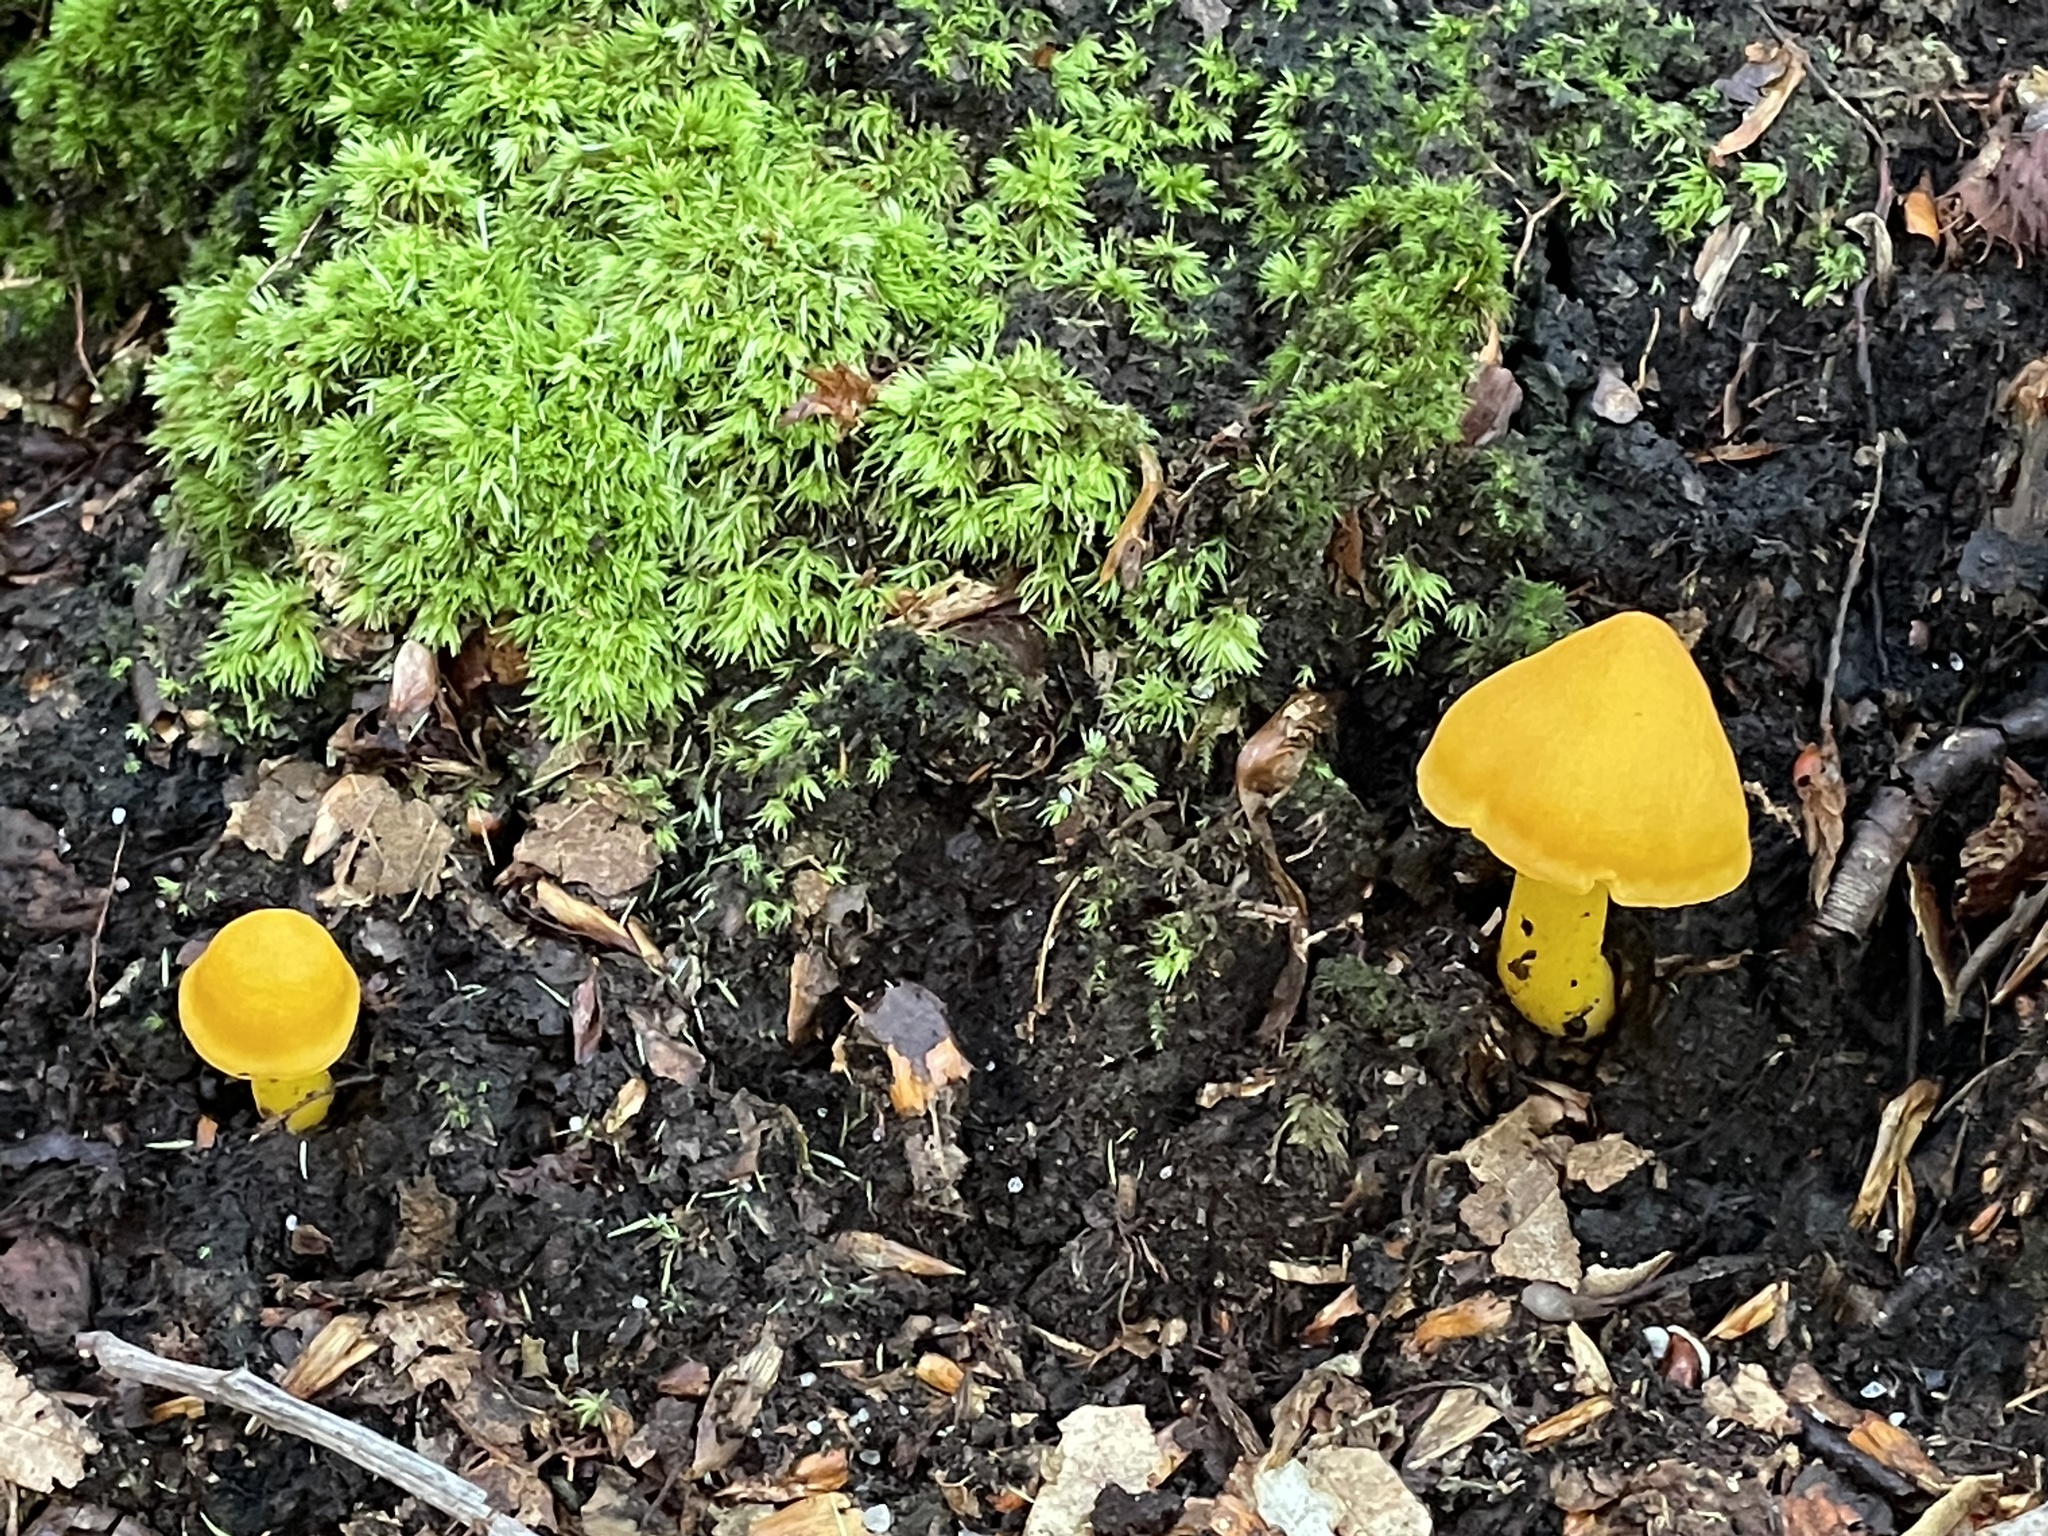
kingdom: Fungi
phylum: Basidiomycota
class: Agaricomycetes
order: Agaricales
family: Hygrophoraceae
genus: Humidicutis
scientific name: Humidicutis marginata
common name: Orange gilled waxcap
